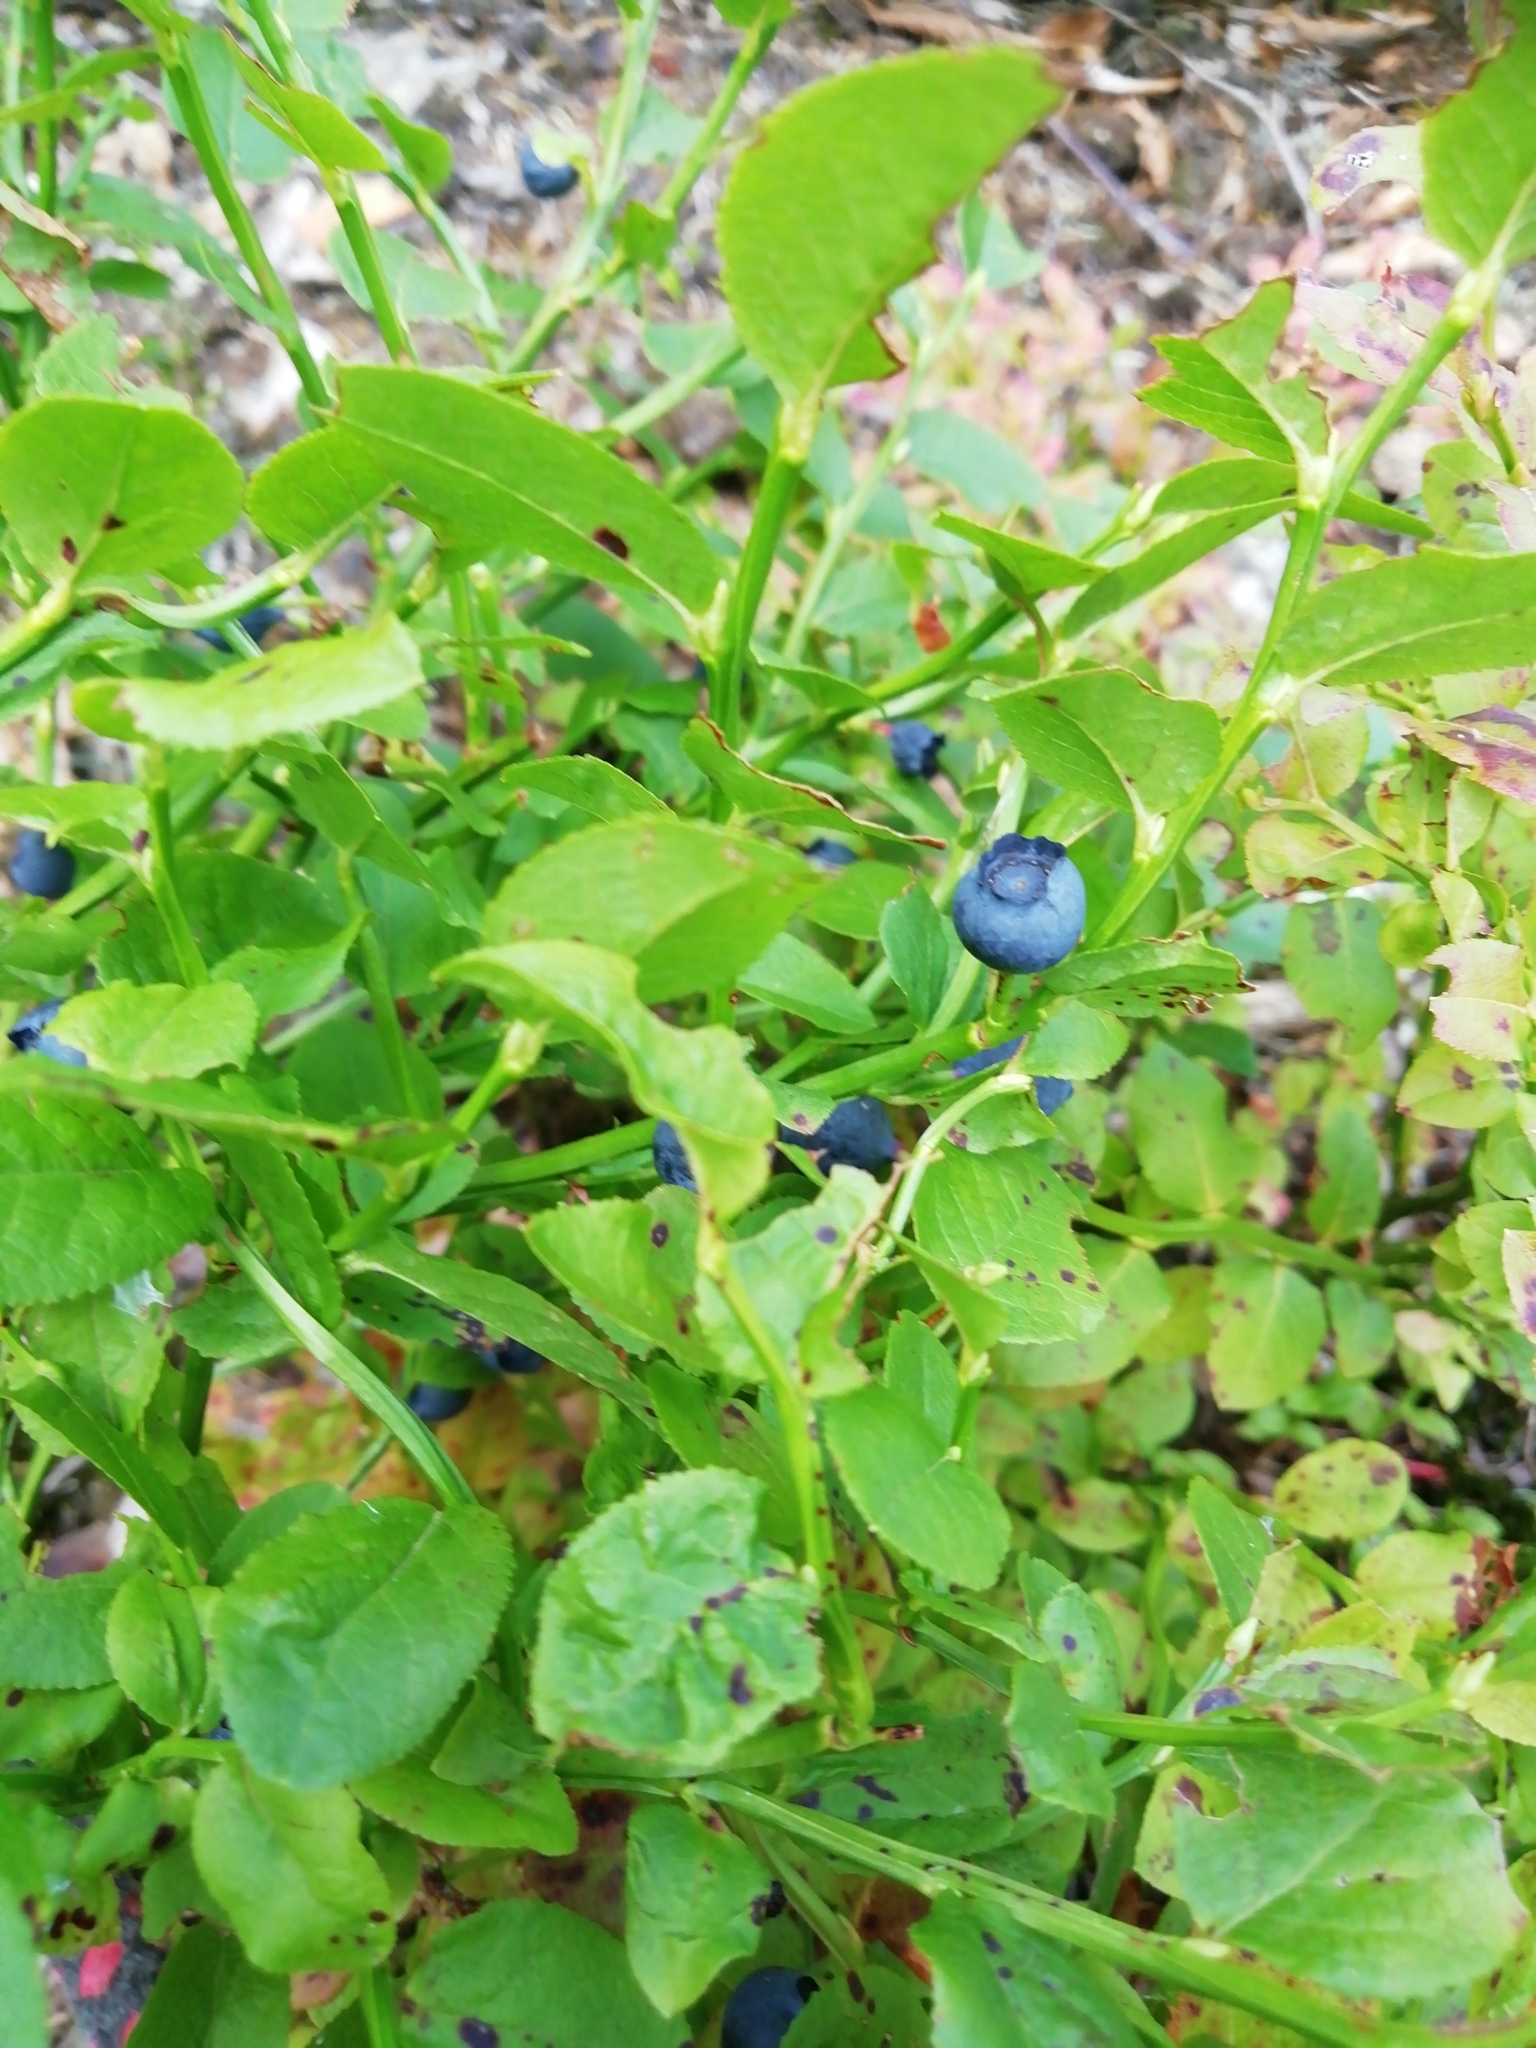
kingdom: Plantae
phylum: Tracheophyta
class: Magnoliopsida
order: Ericales
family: Ericaceae
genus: Vaccinium
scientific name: Vaccinium myrtillus
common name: Bilberry
